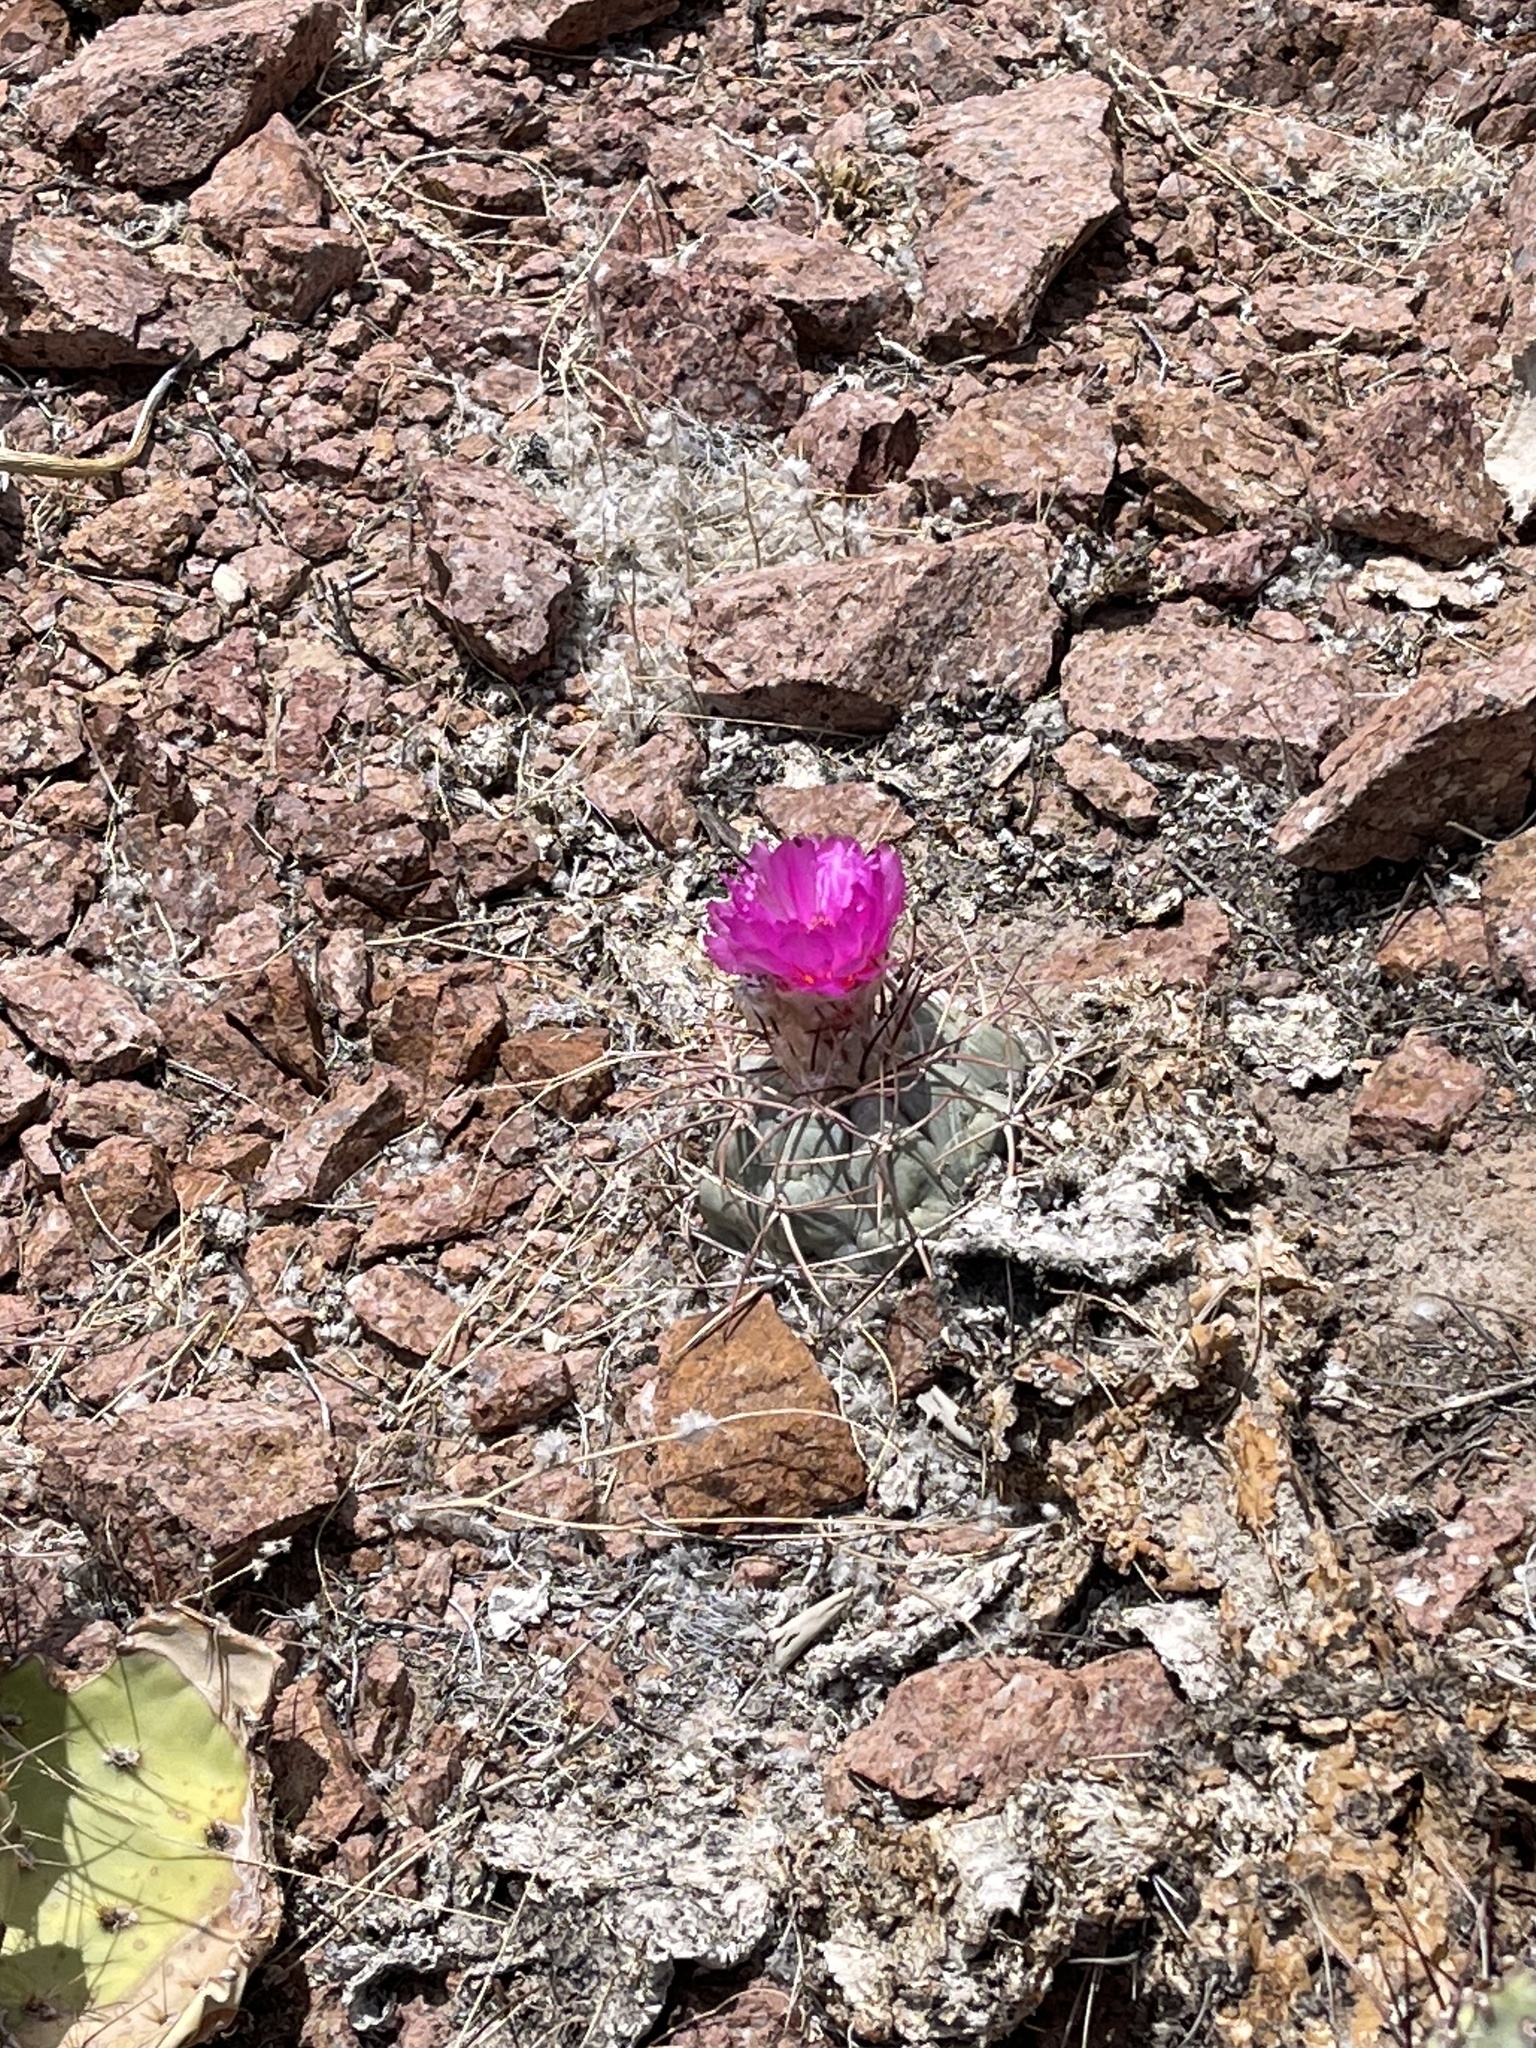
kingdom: Plantae
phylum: Tracheophyta
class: Magnoliopsida
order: Caryophyllales
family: Cactaceae
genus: Echinocactus
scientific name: Echinocactus horizonthalonius
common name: Devilshead
